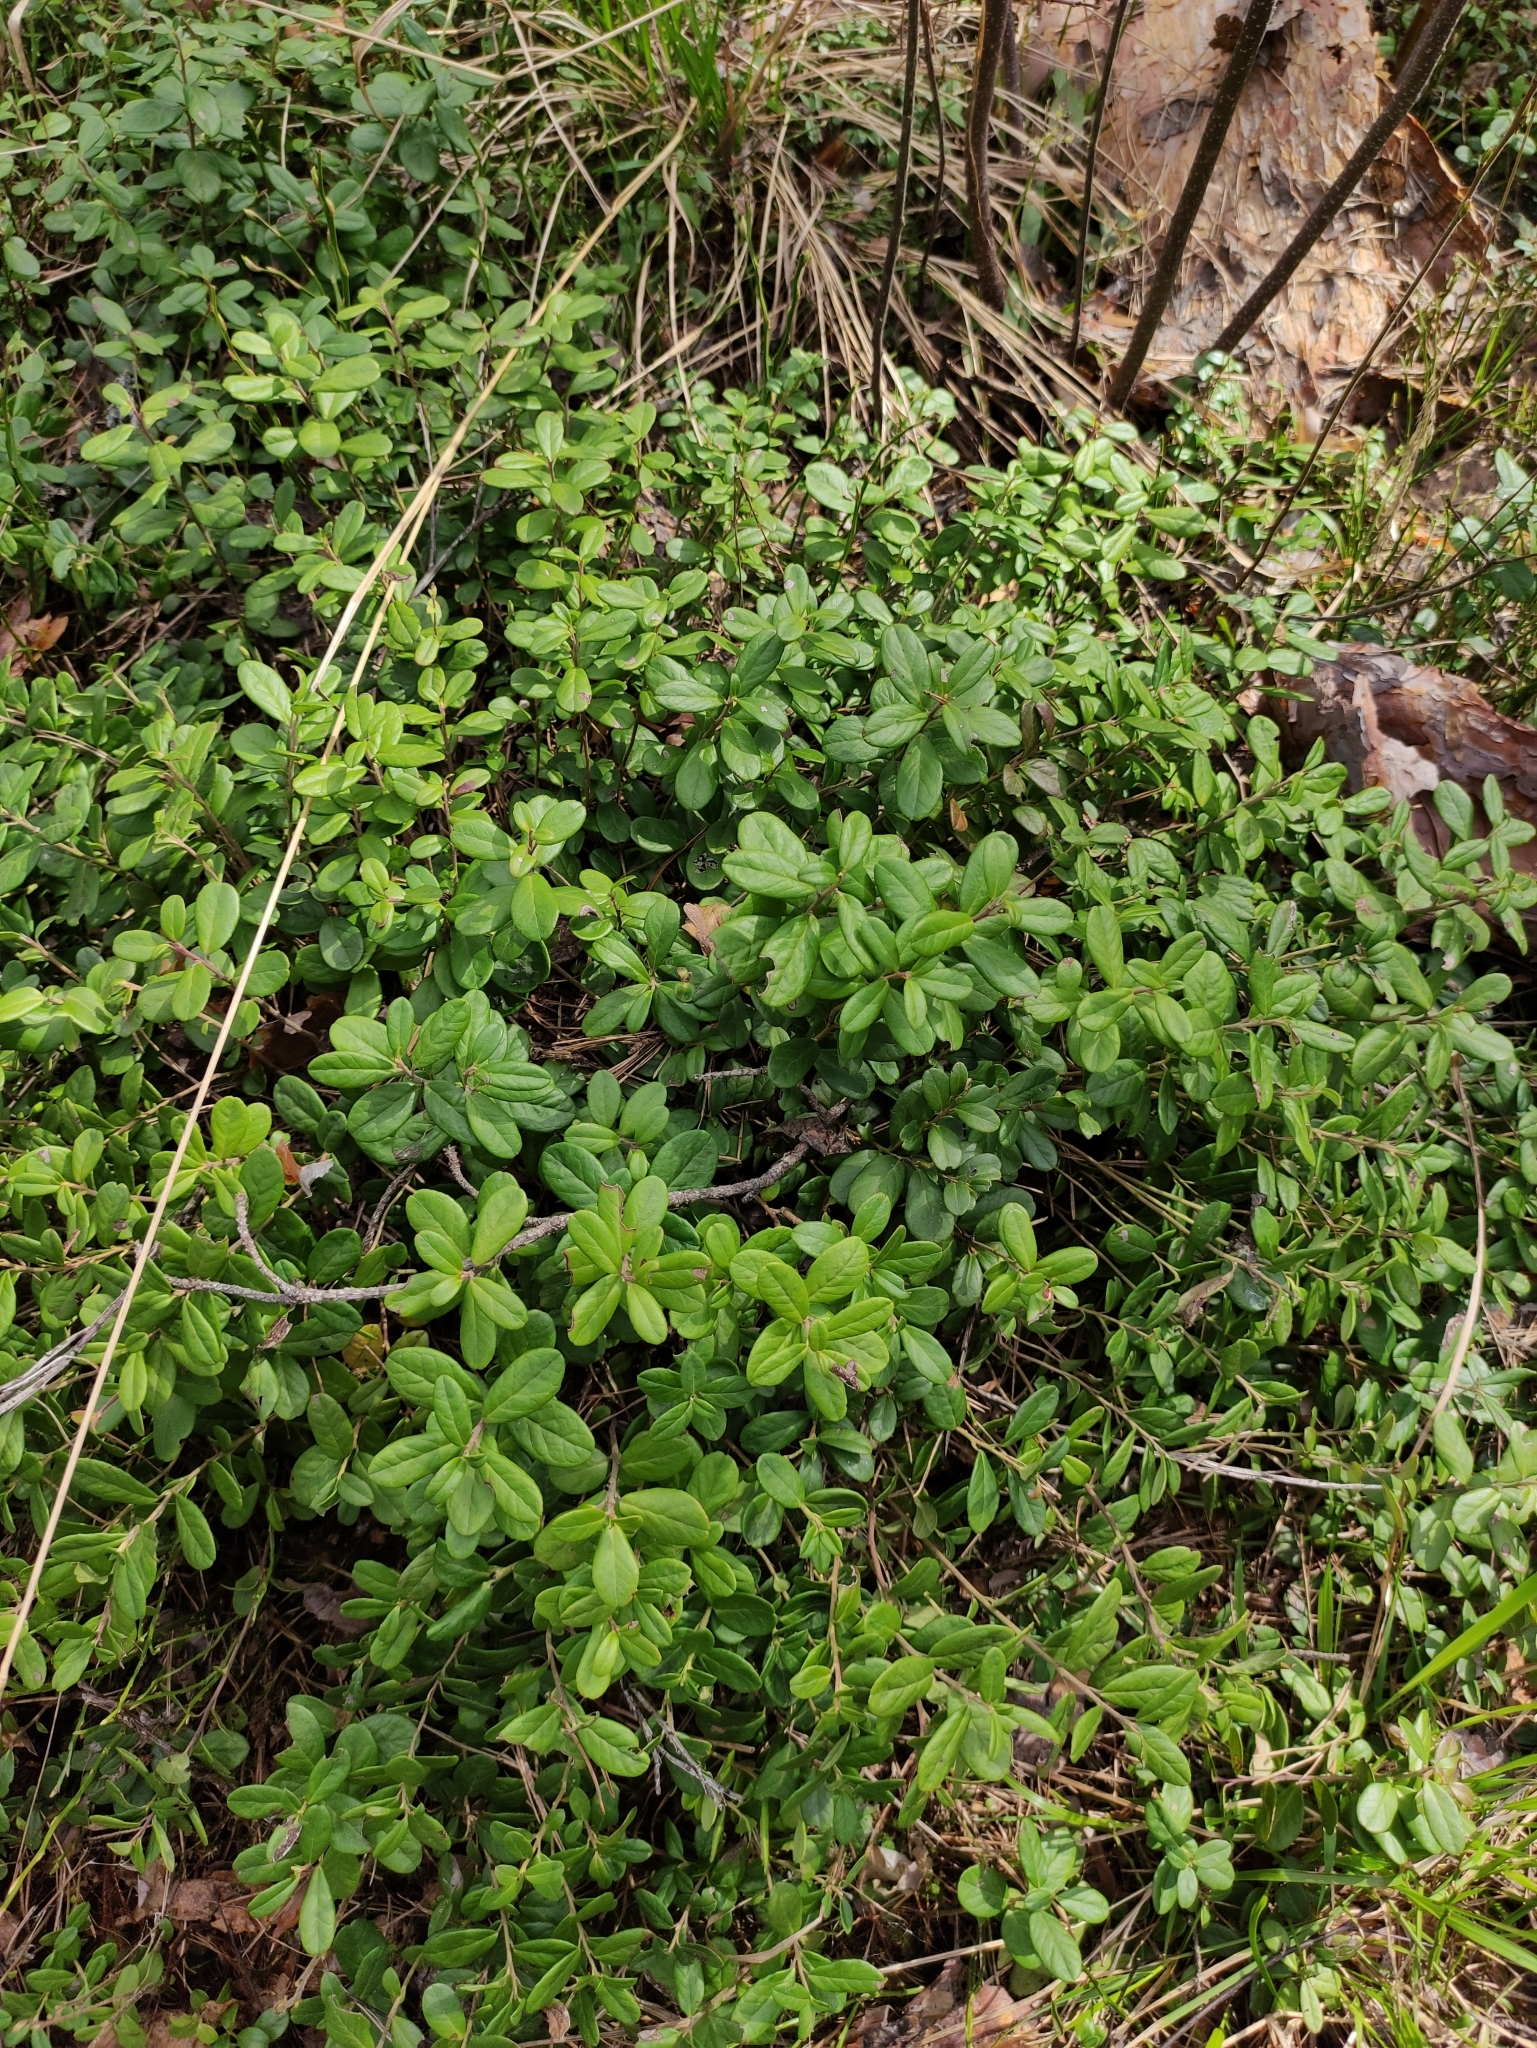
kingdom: Plantae
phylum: Tracheophyta
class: Magnoliopsida
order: Ericales
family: Ericaceae
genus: Vaccinium
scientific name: Vaccinium vitis-idaea
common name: Cowberry
